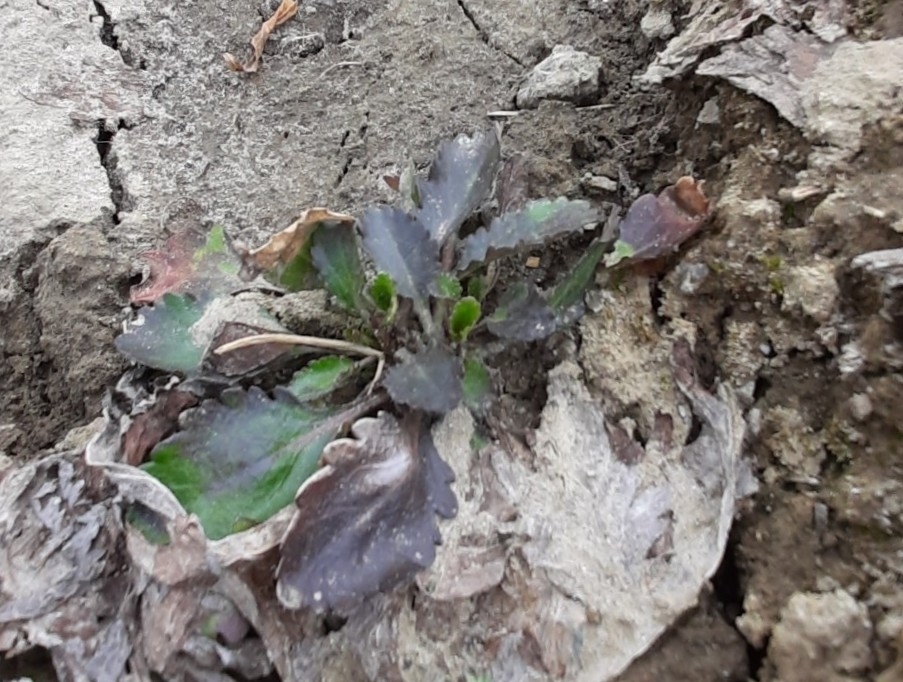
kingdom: Plantae
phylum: Tracheophyta
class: Magnoliopsida
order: Asterales
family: Asteraceae
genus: Leucanthemum
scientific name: Leucanthemum ircutianum
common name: Daisy
